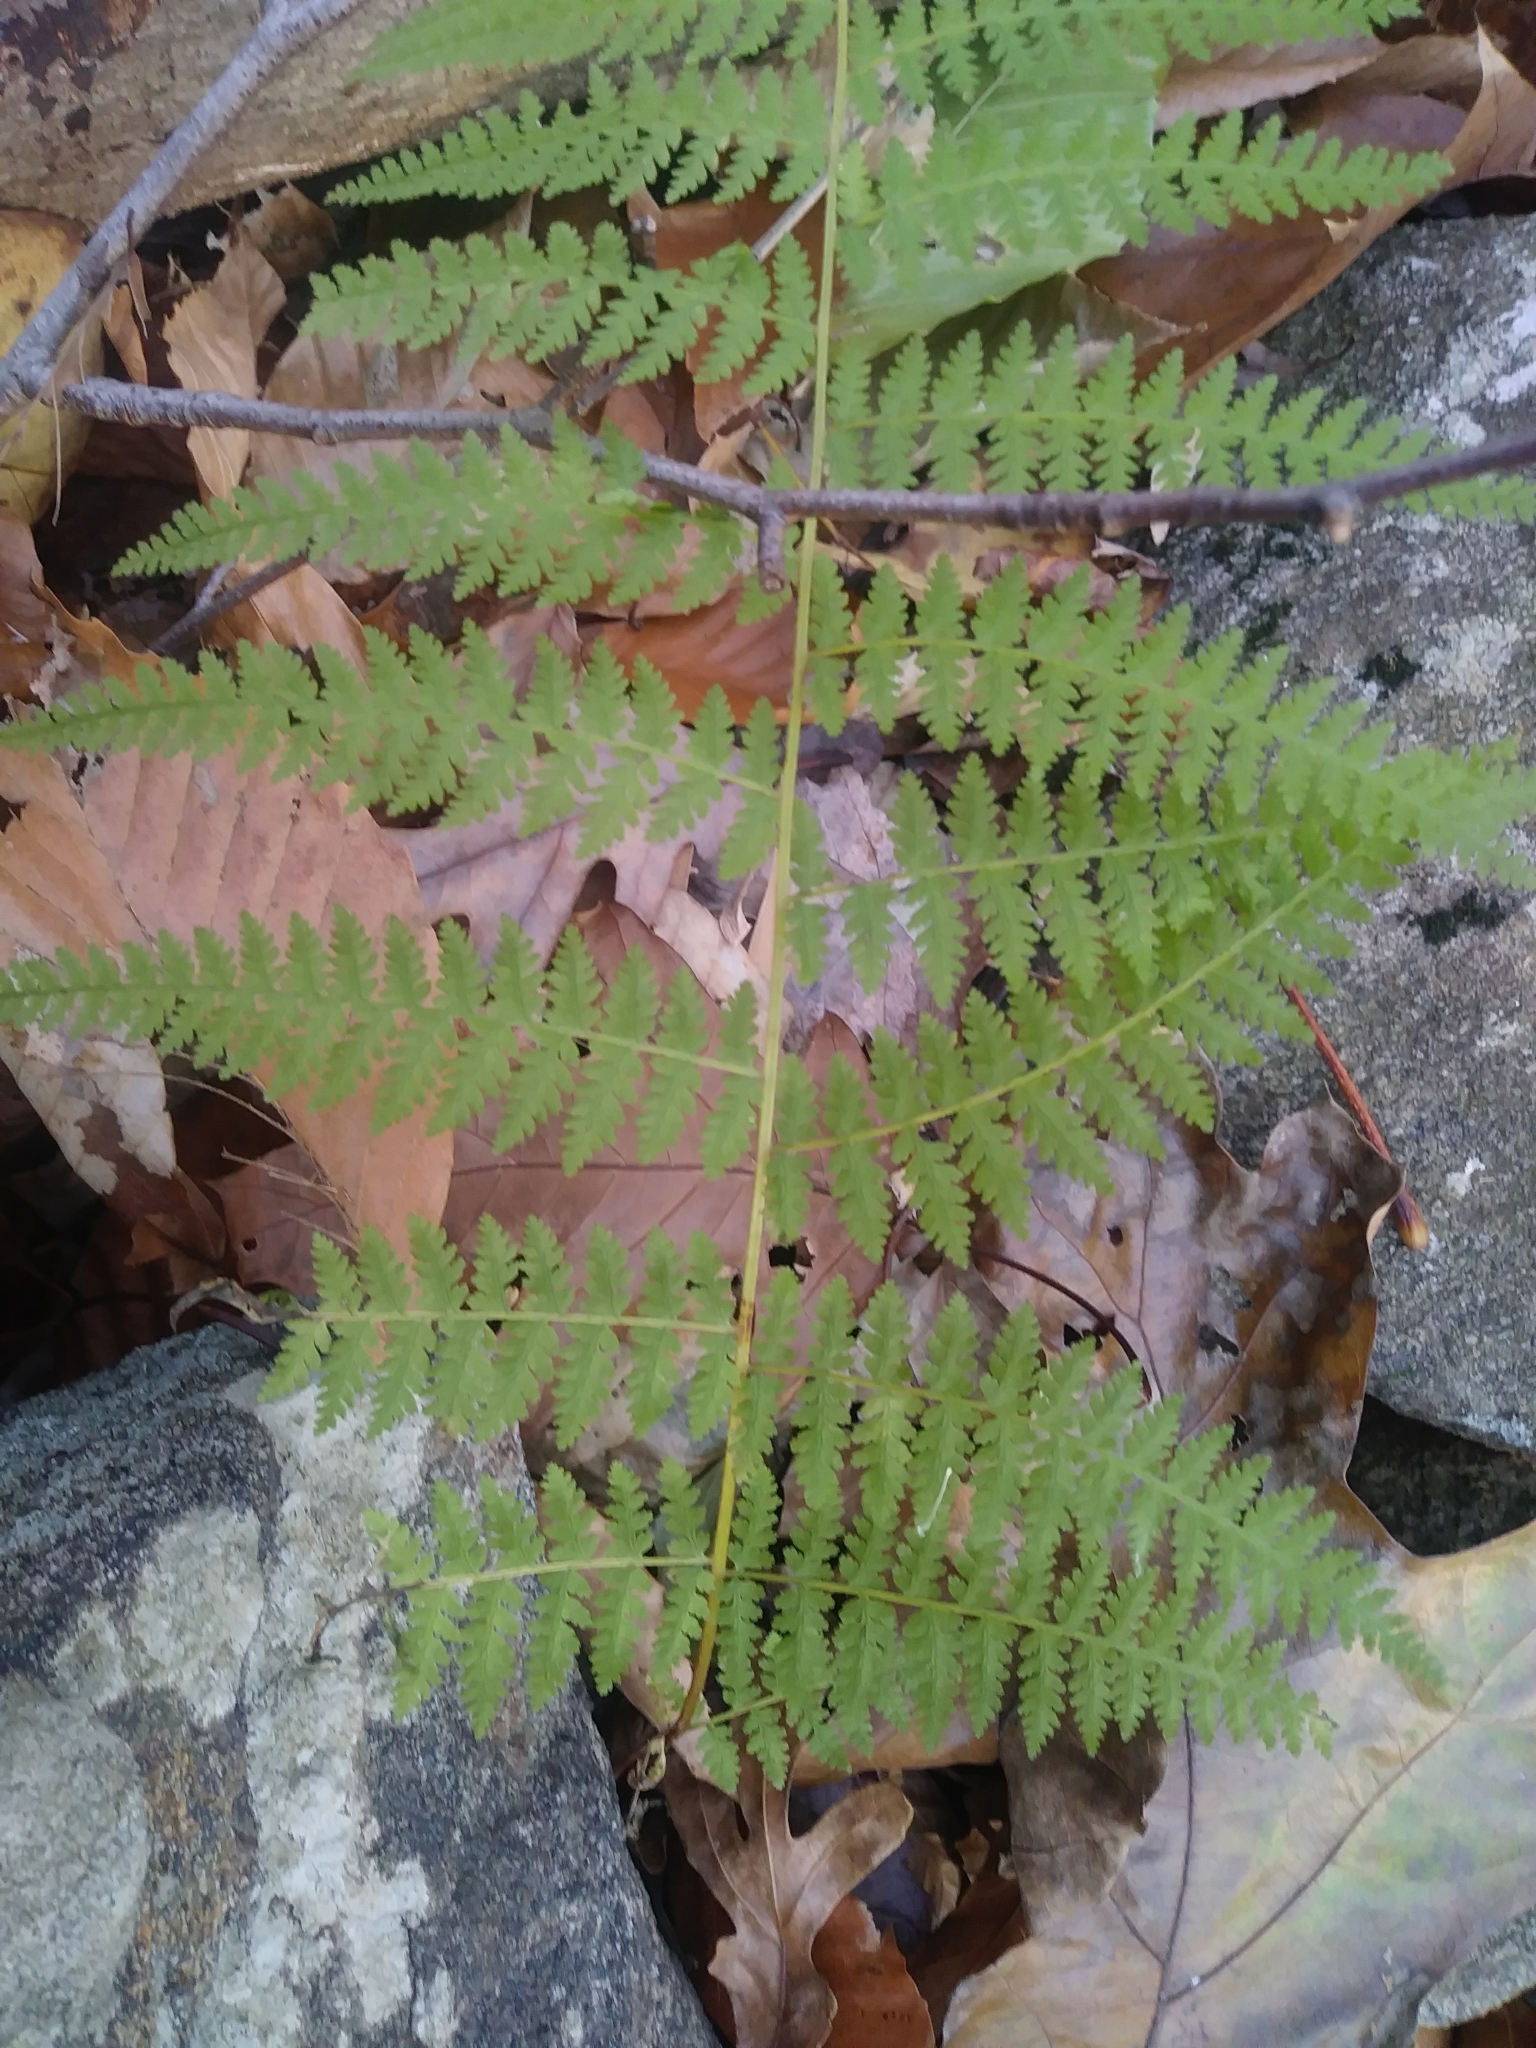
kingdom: Plantae
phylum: Tracheophyta
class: Polypodiopsida
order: Polypodiales
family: Dennstaedtiaceae
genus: Sitobolium
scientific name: Sitobolium punctilobum
